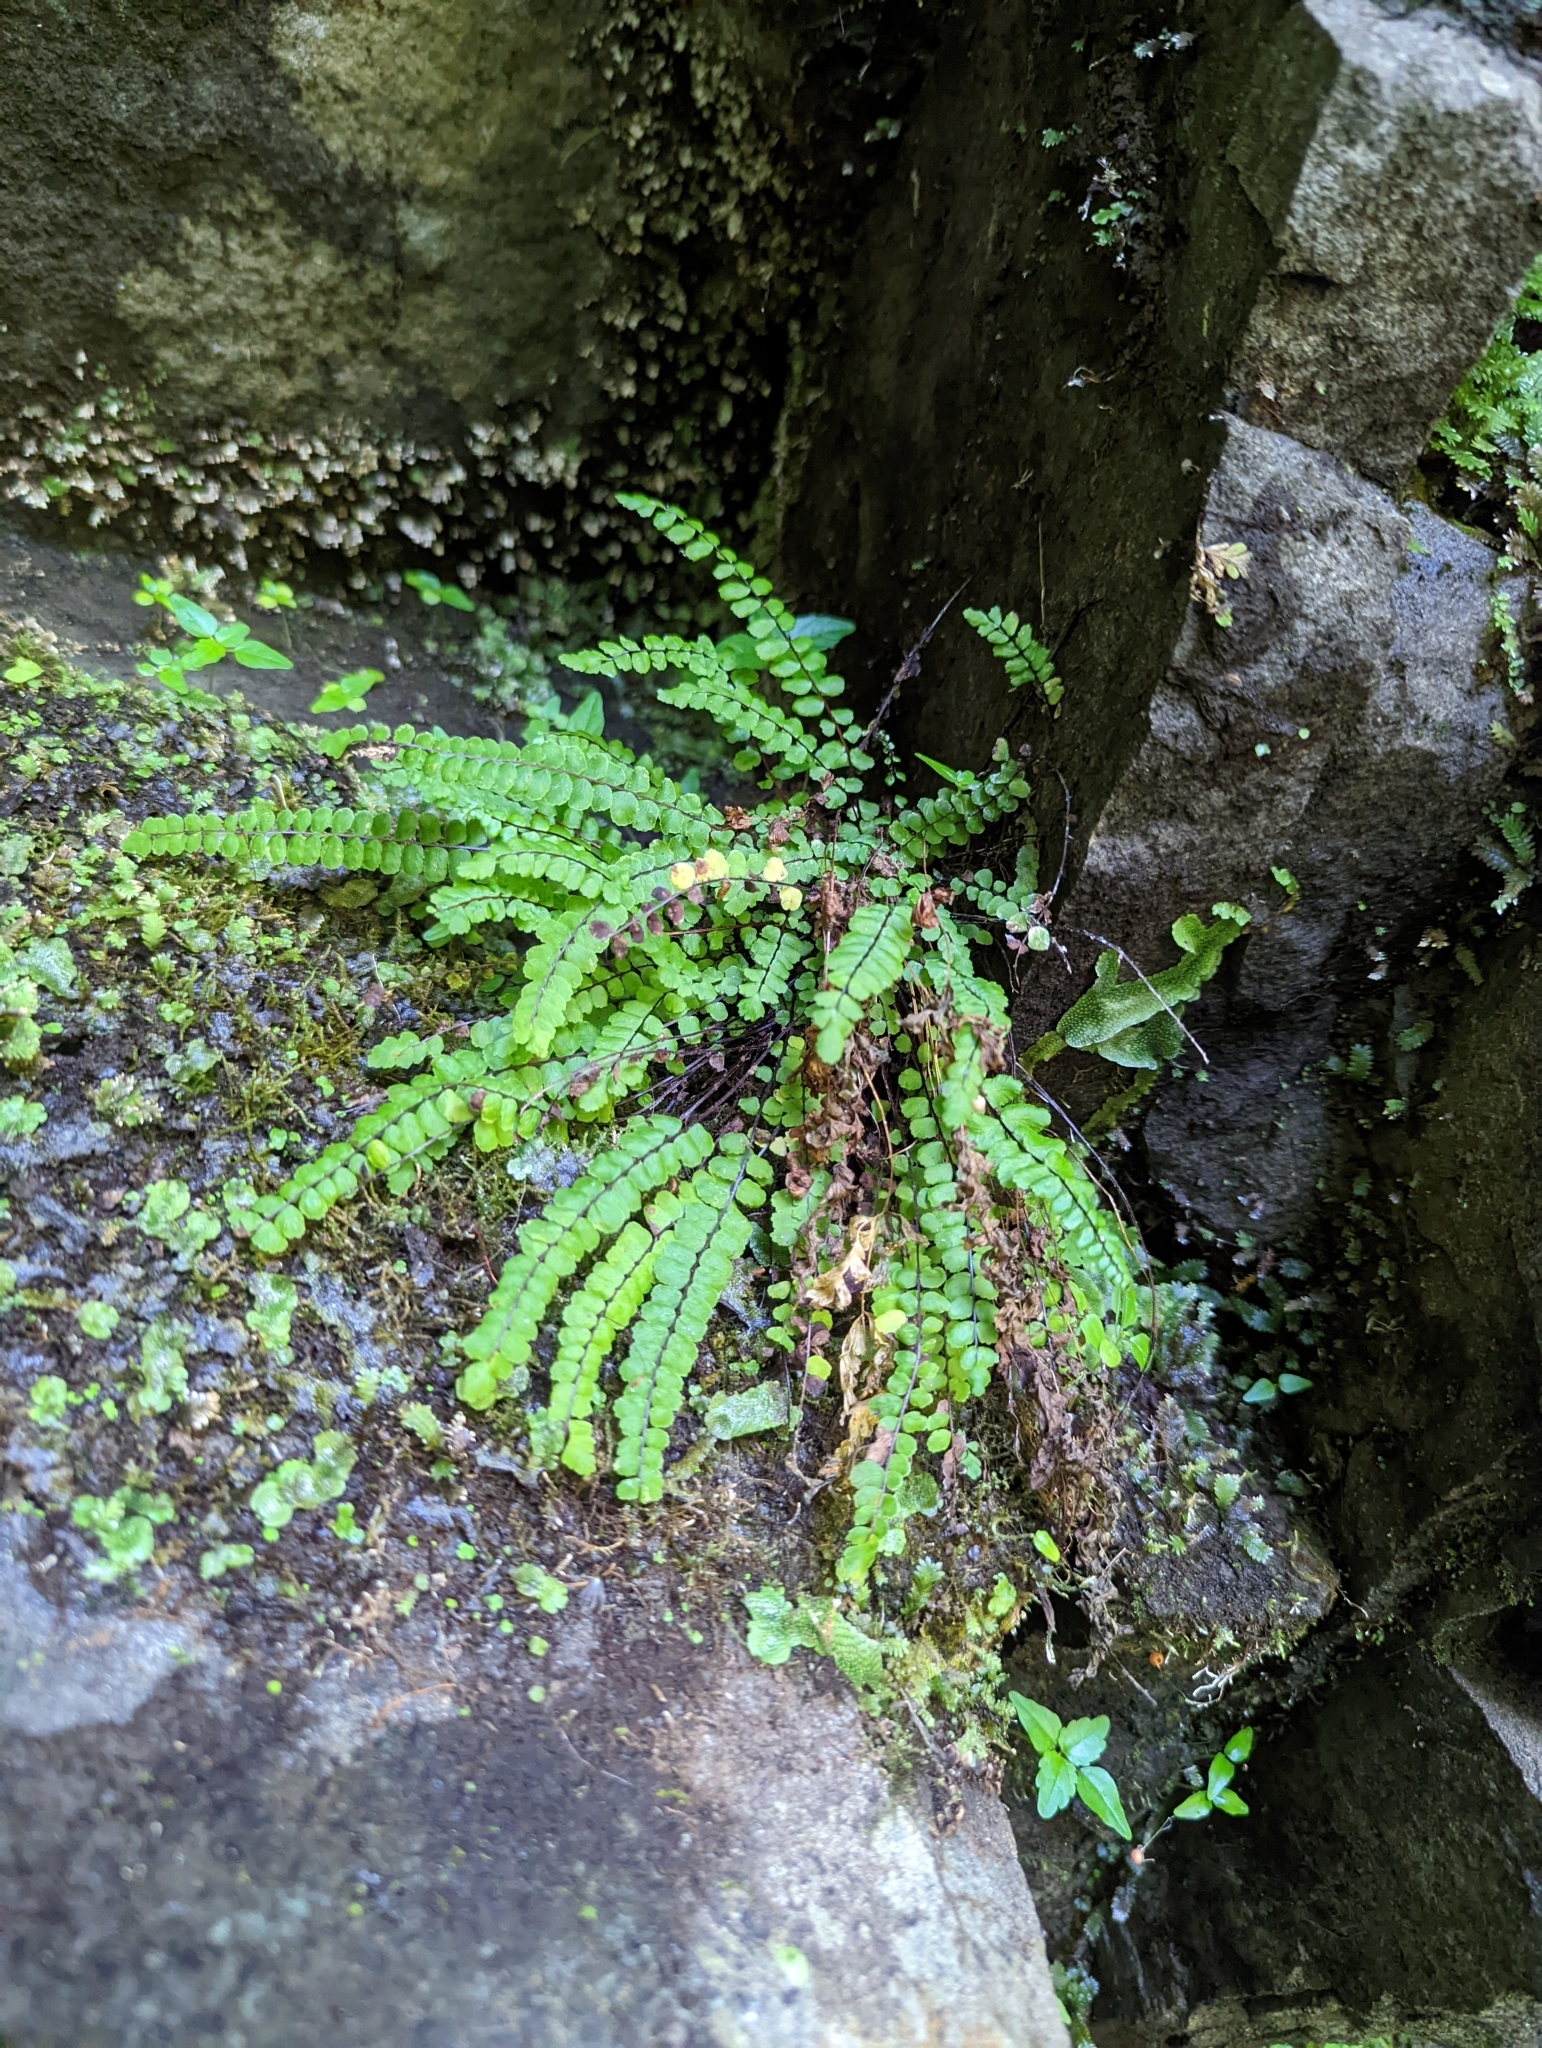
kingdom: Plantae
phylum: Tracheophyta
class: Polypodiopsida
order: Polypodiales
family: Aspleniaceae
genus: Asplenium
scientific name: Asplenium trichomanes
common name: Maidenhair spleenwort
